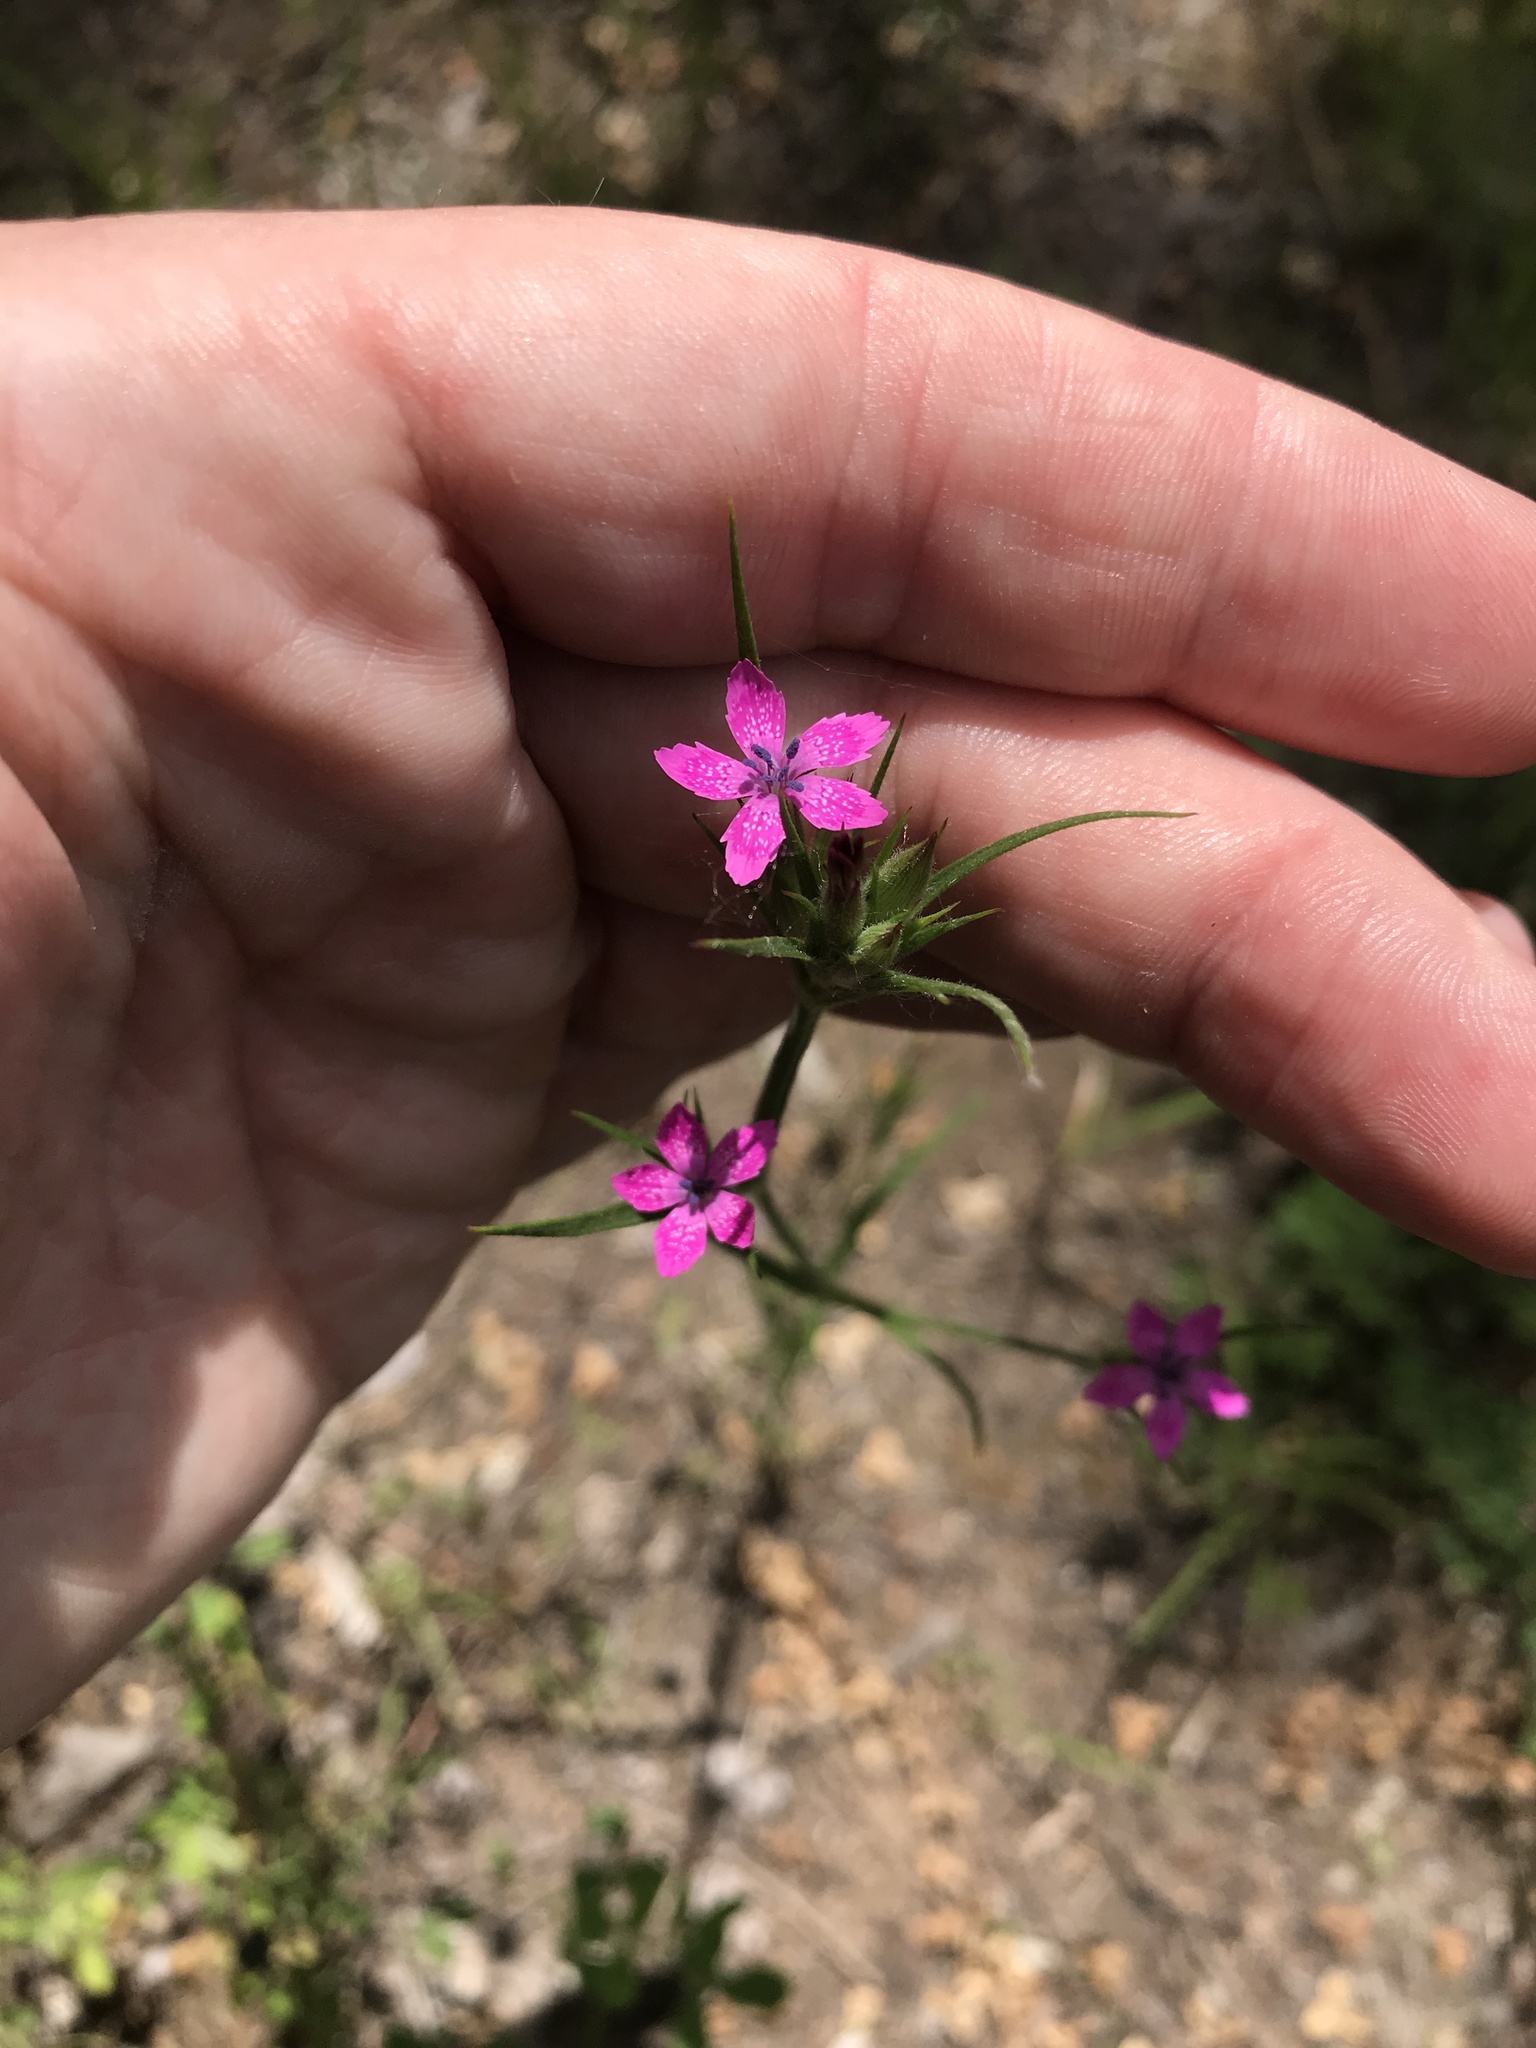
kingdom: Plantae
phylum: Tracheophyta
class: Magnoliopsida
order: Caryophyllales
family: Caryophyllaceae
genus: Dianthus
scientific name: Dianthus armeria
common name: Deptford pink
